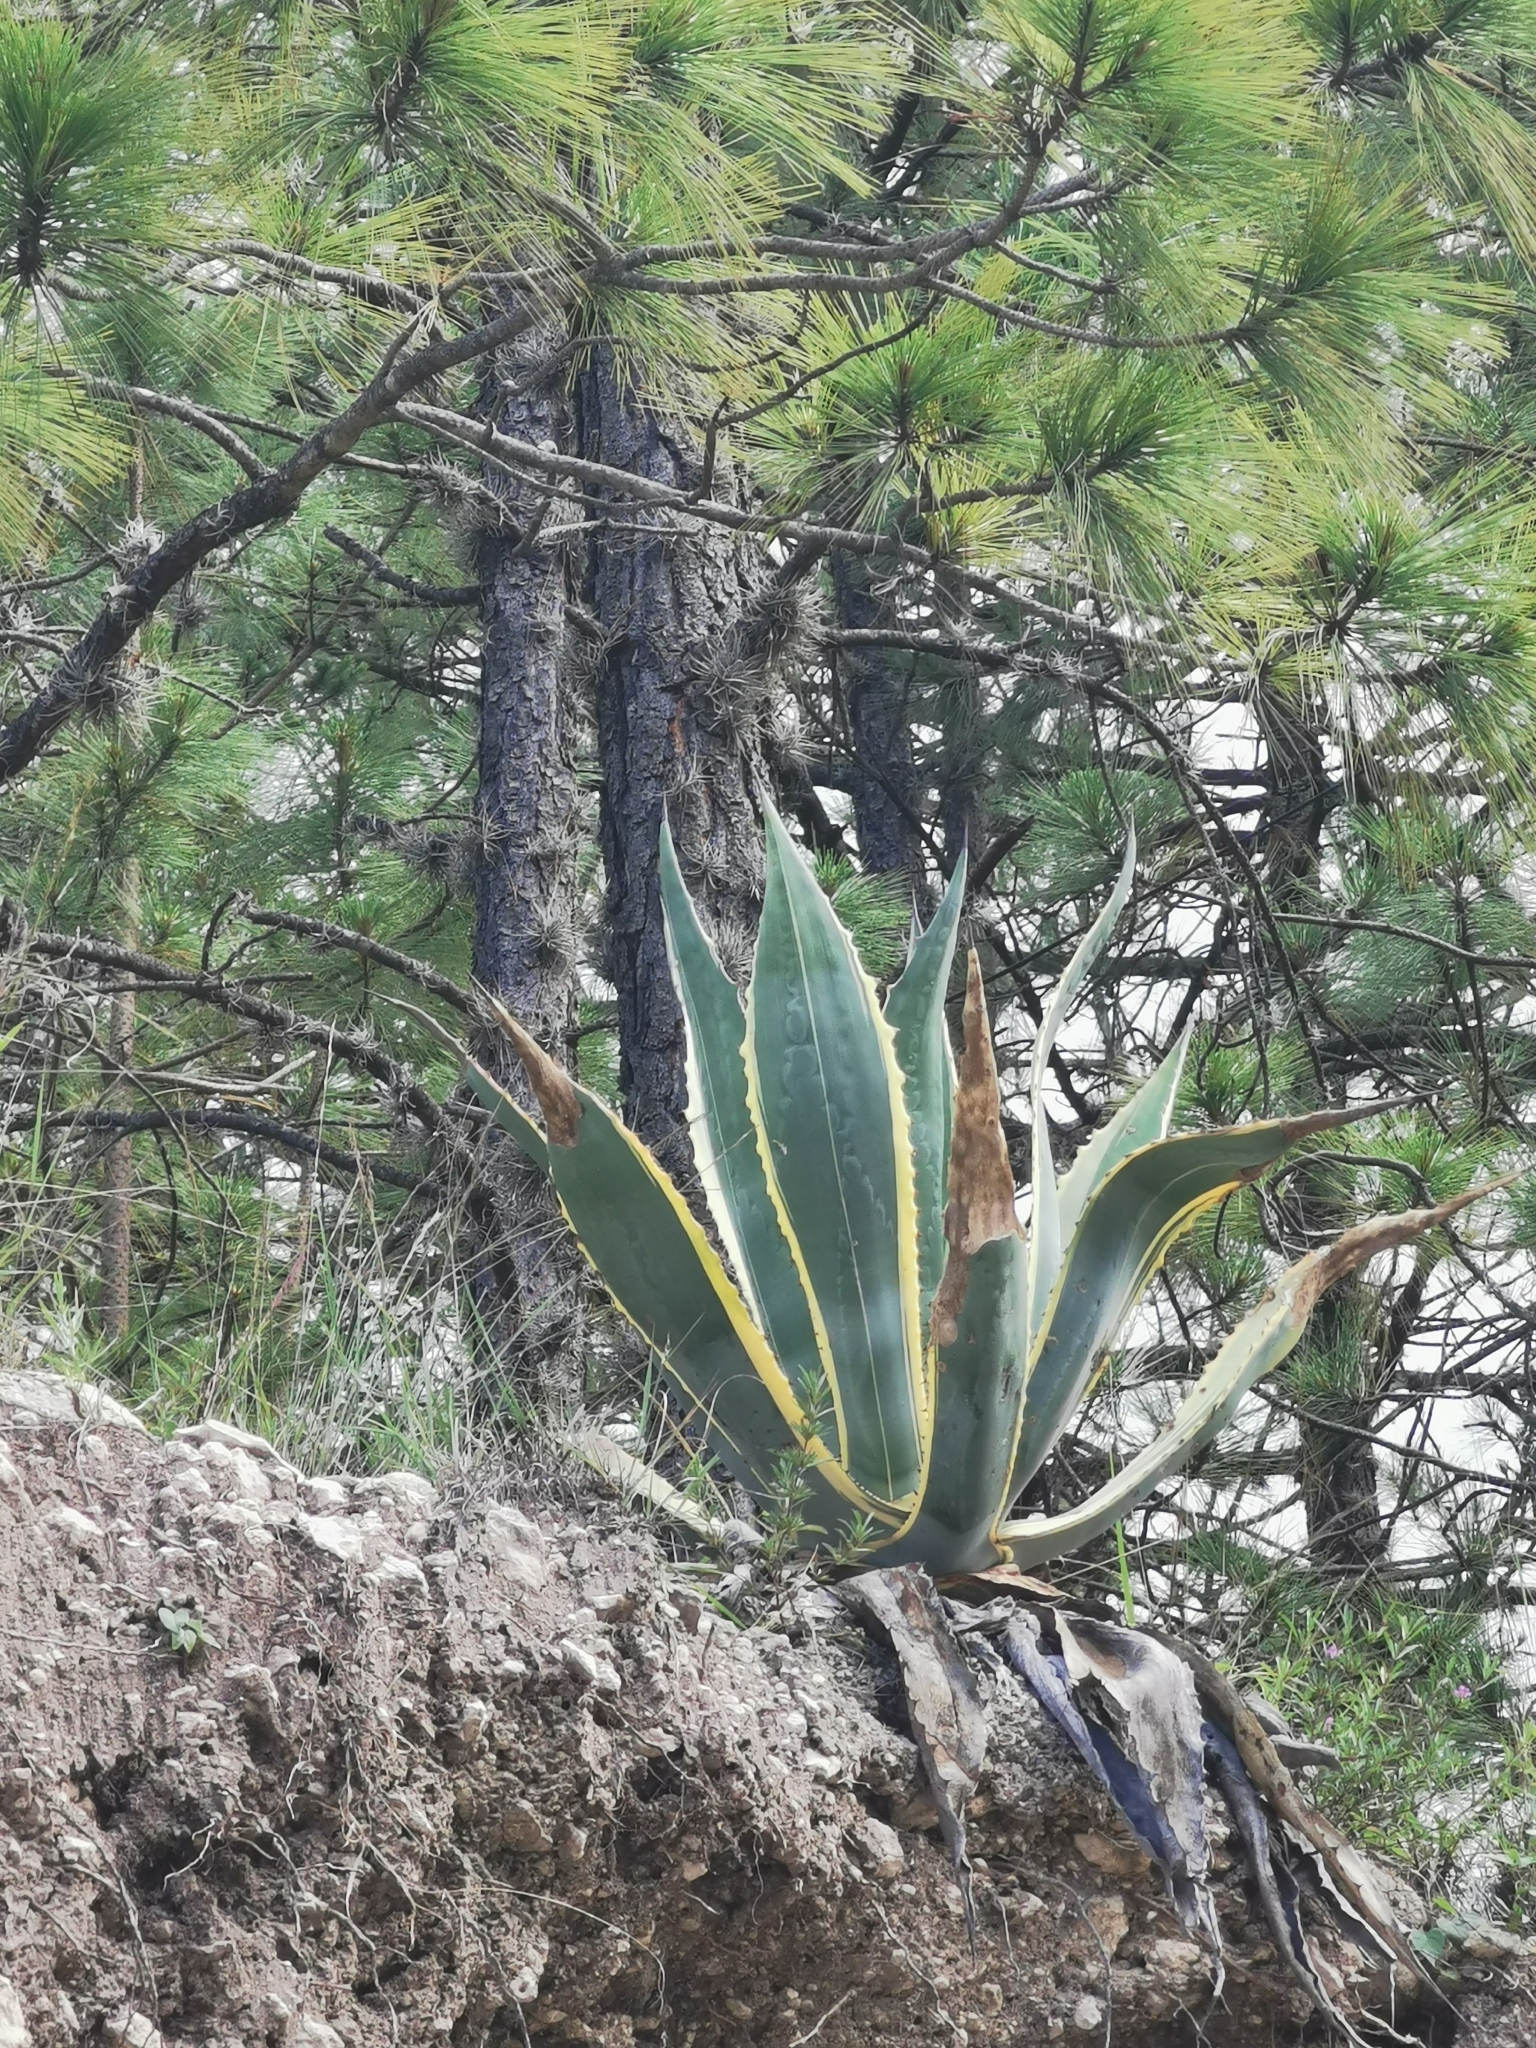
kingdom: Plantae
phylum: Tracheophyta
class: Liliopsida
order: Asparagales
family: Asparagaceae
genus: Agave
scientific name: Agave americana
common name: Centuryplant
